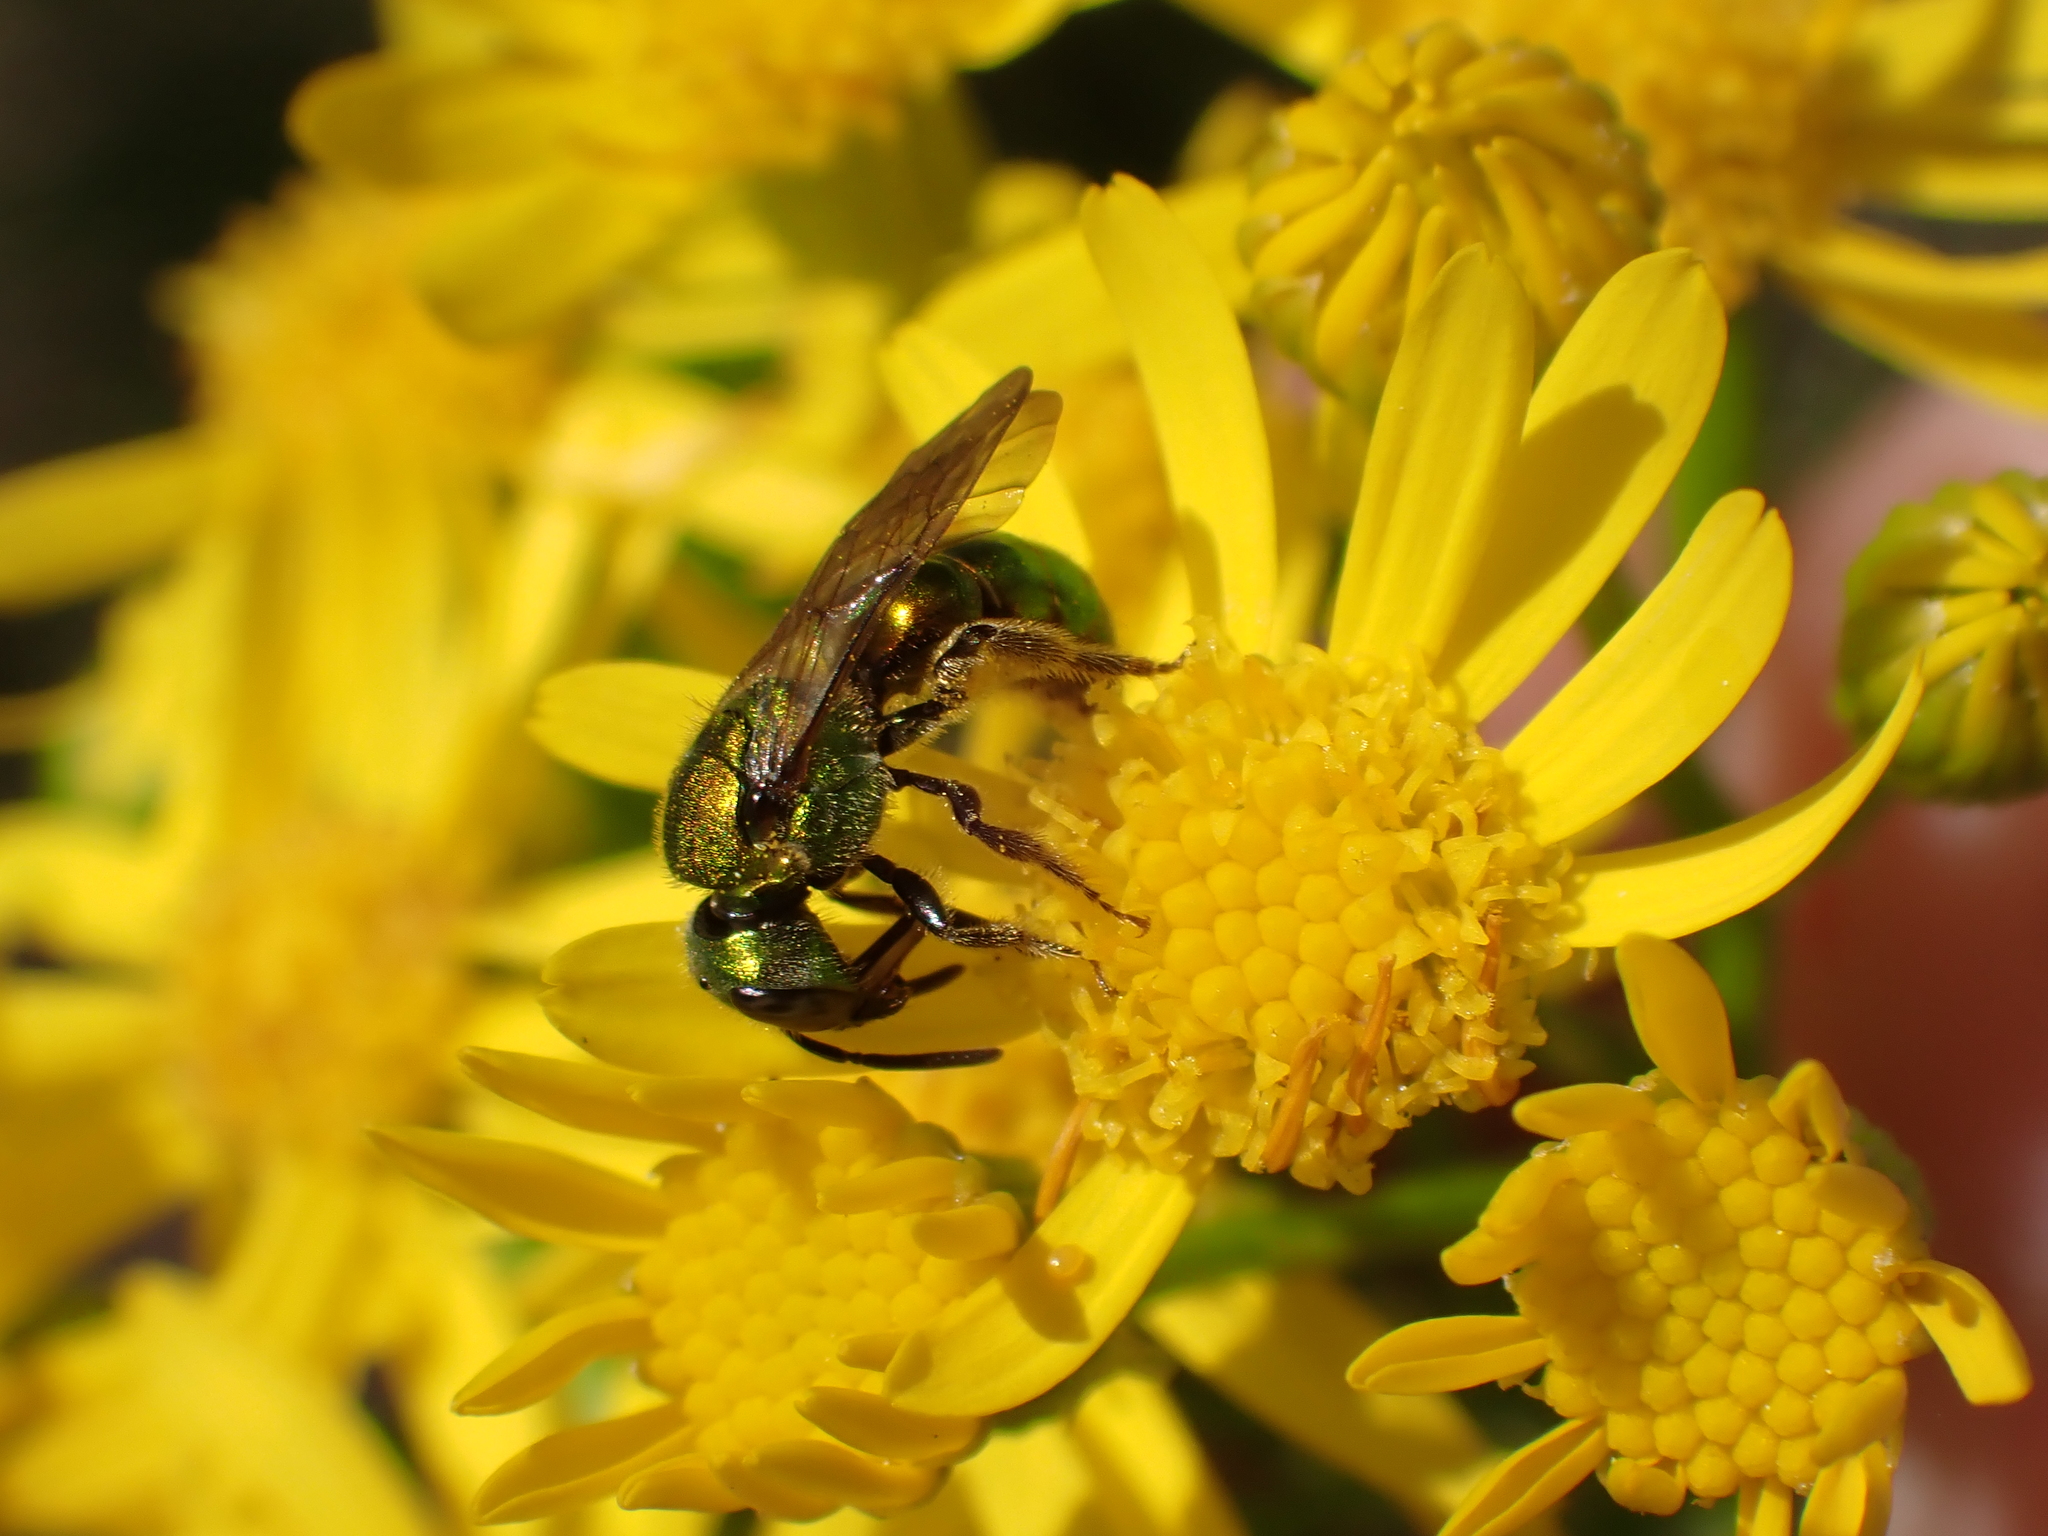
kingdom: Animalia
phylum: Arthropoda
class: Insecta
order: Hymenoptera
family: Halictidae
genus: Augochlora
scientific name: Augochlora pura
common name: Pure green sweat bee
